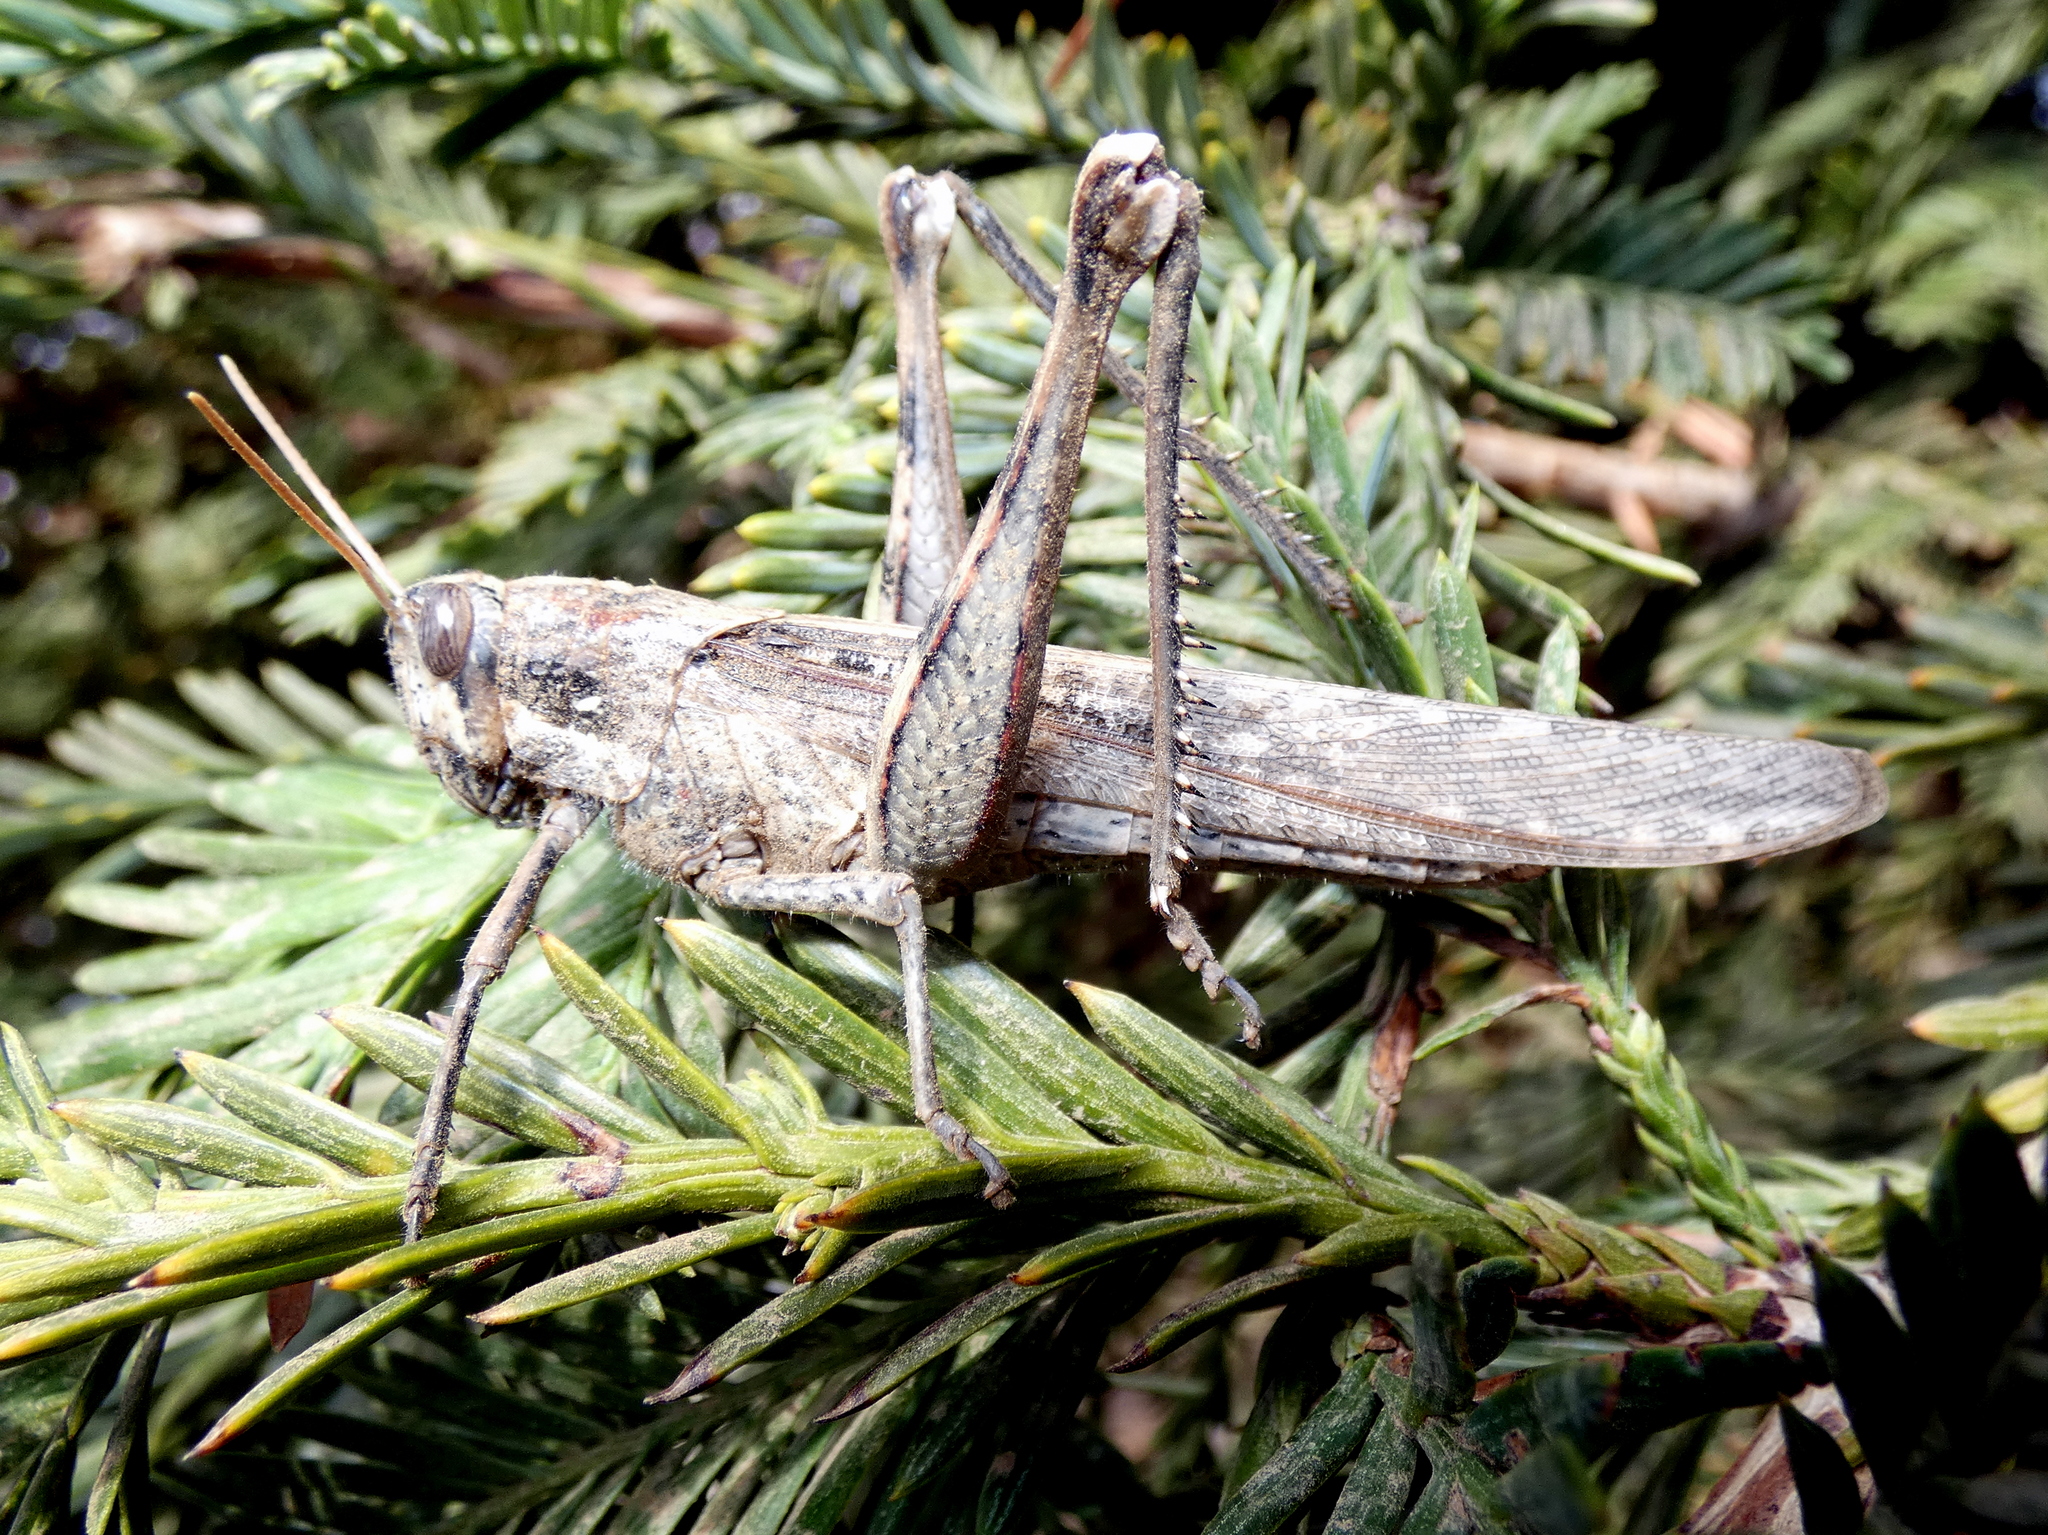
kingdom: Animalia
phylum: Arthropoda
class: Insecta
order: Orthoptera
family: Acrididae
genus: Schistocerca
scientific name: Schistocerca nitens
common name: Vagrant grasshopper
